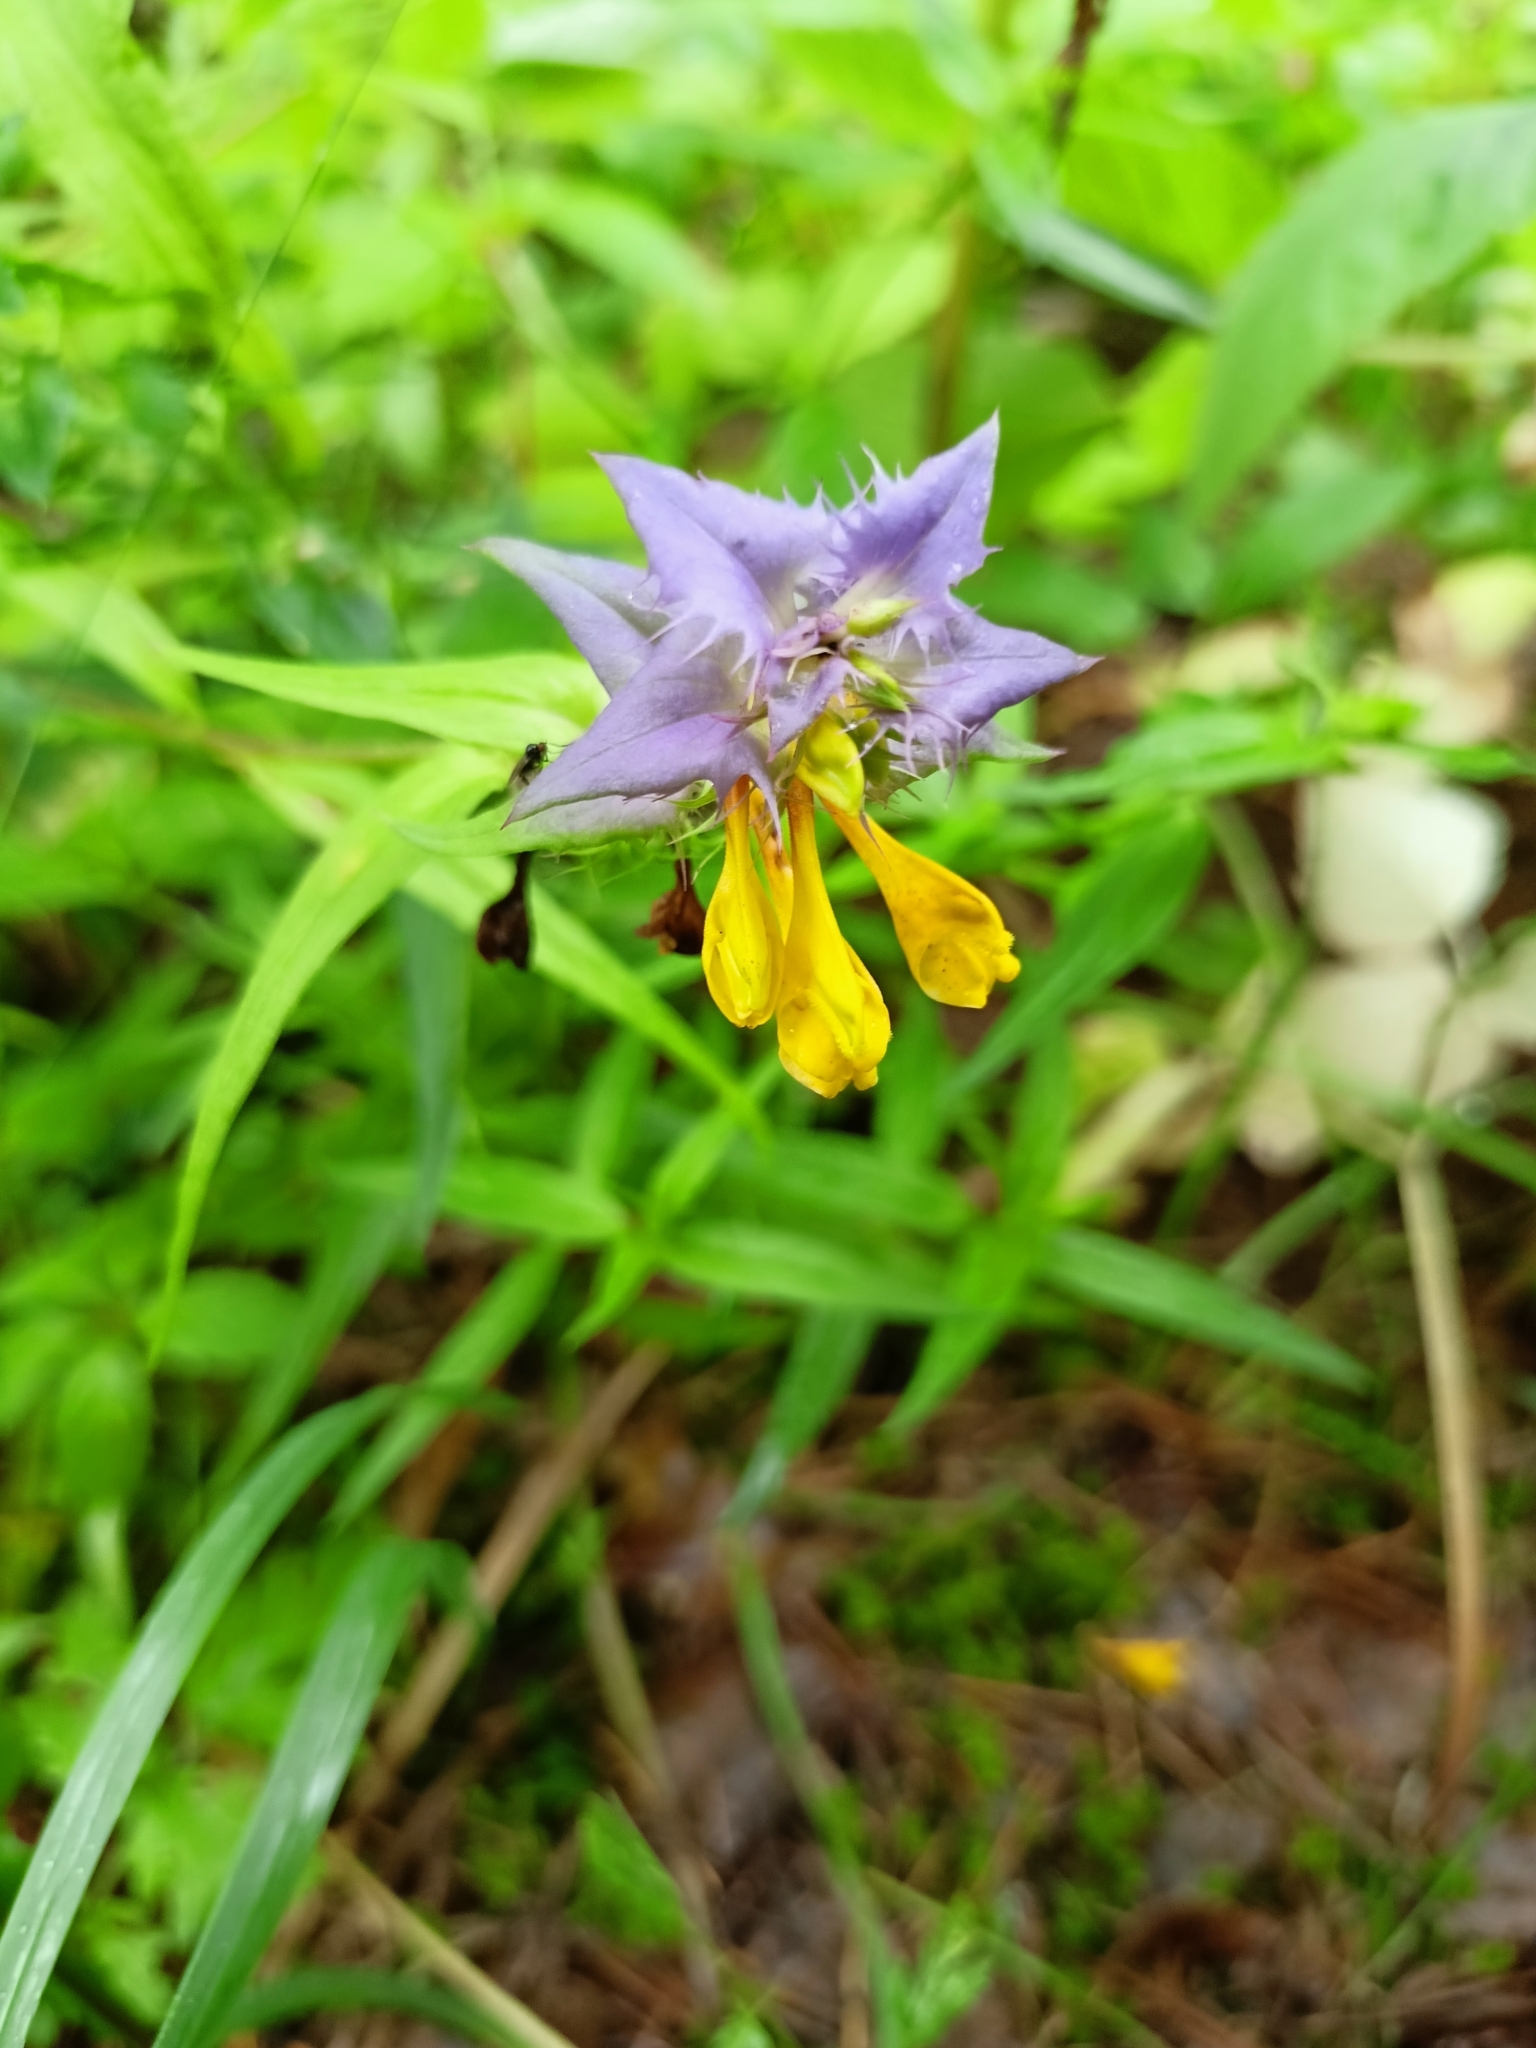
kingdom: Plantae
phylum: Tracheophyta
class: Magnoliopsida
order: Lamiales
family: Orobanchaceae
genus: Melampyrum
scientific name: Melampyrum nemorosum
